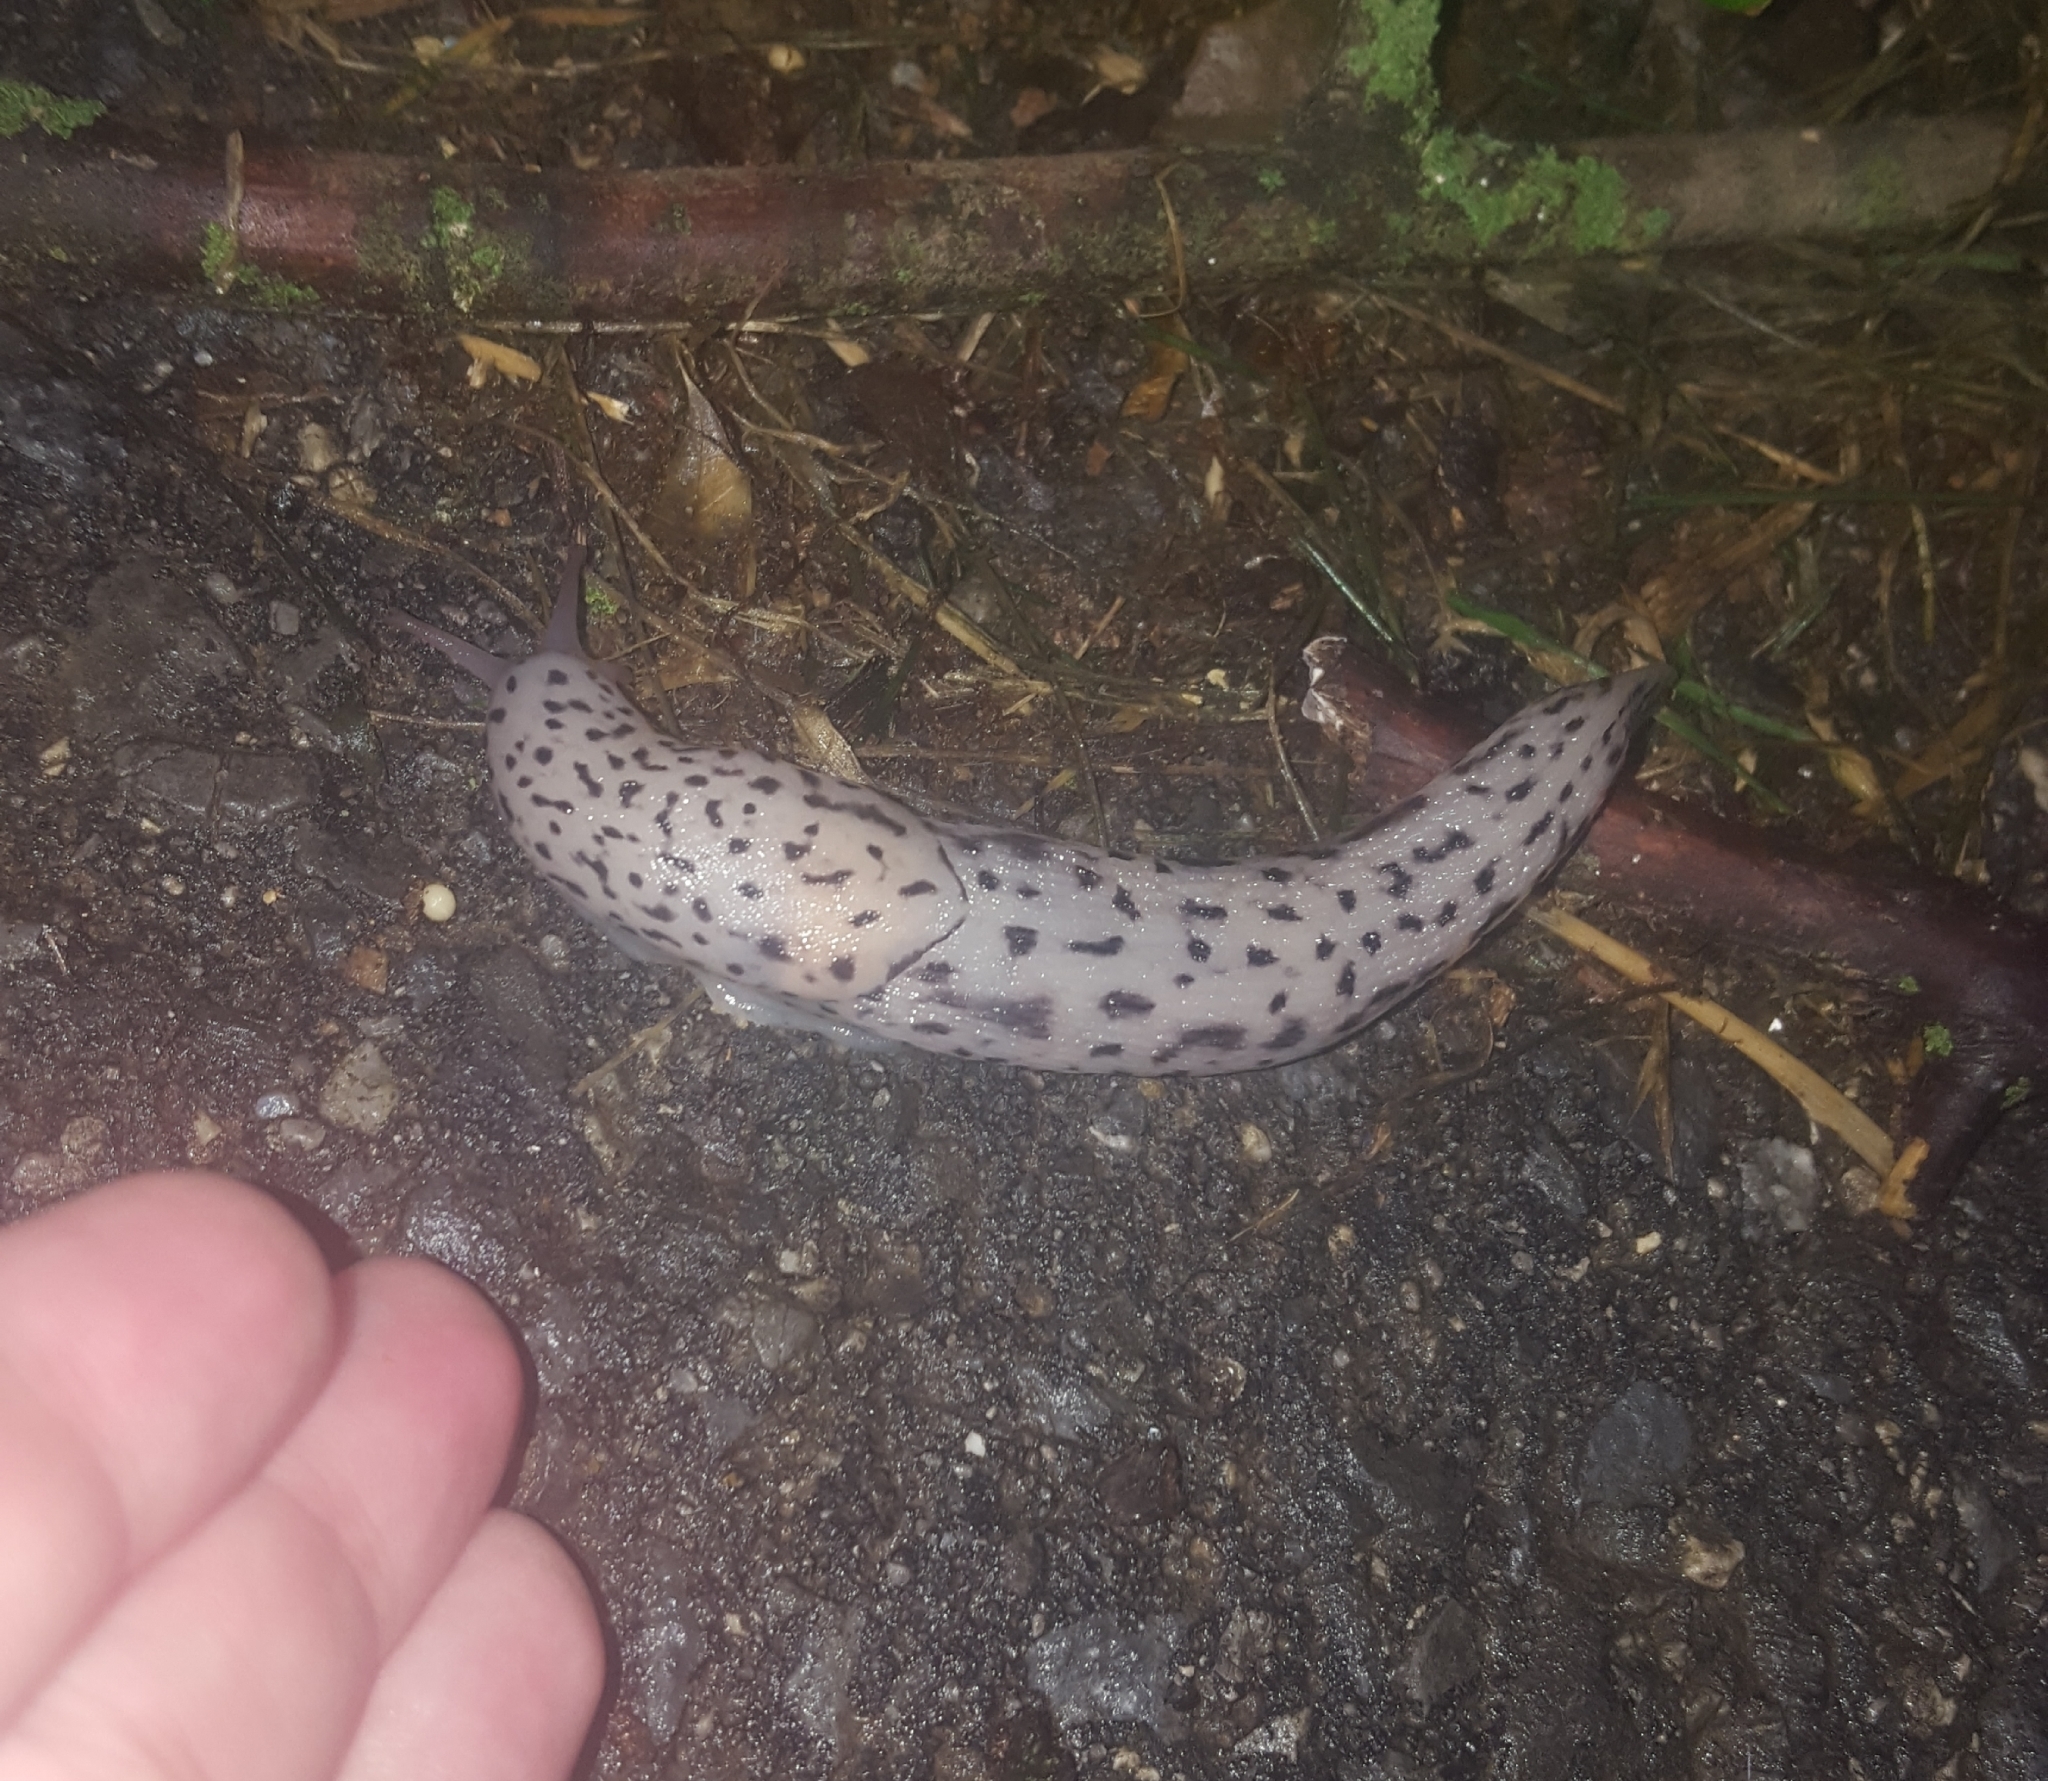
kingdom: Animalia
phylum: Mollusca
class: Gastropoda
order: Stylommatophora
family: Limacidae
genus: Limax
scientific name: Limax maximus
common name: Great grey slug
